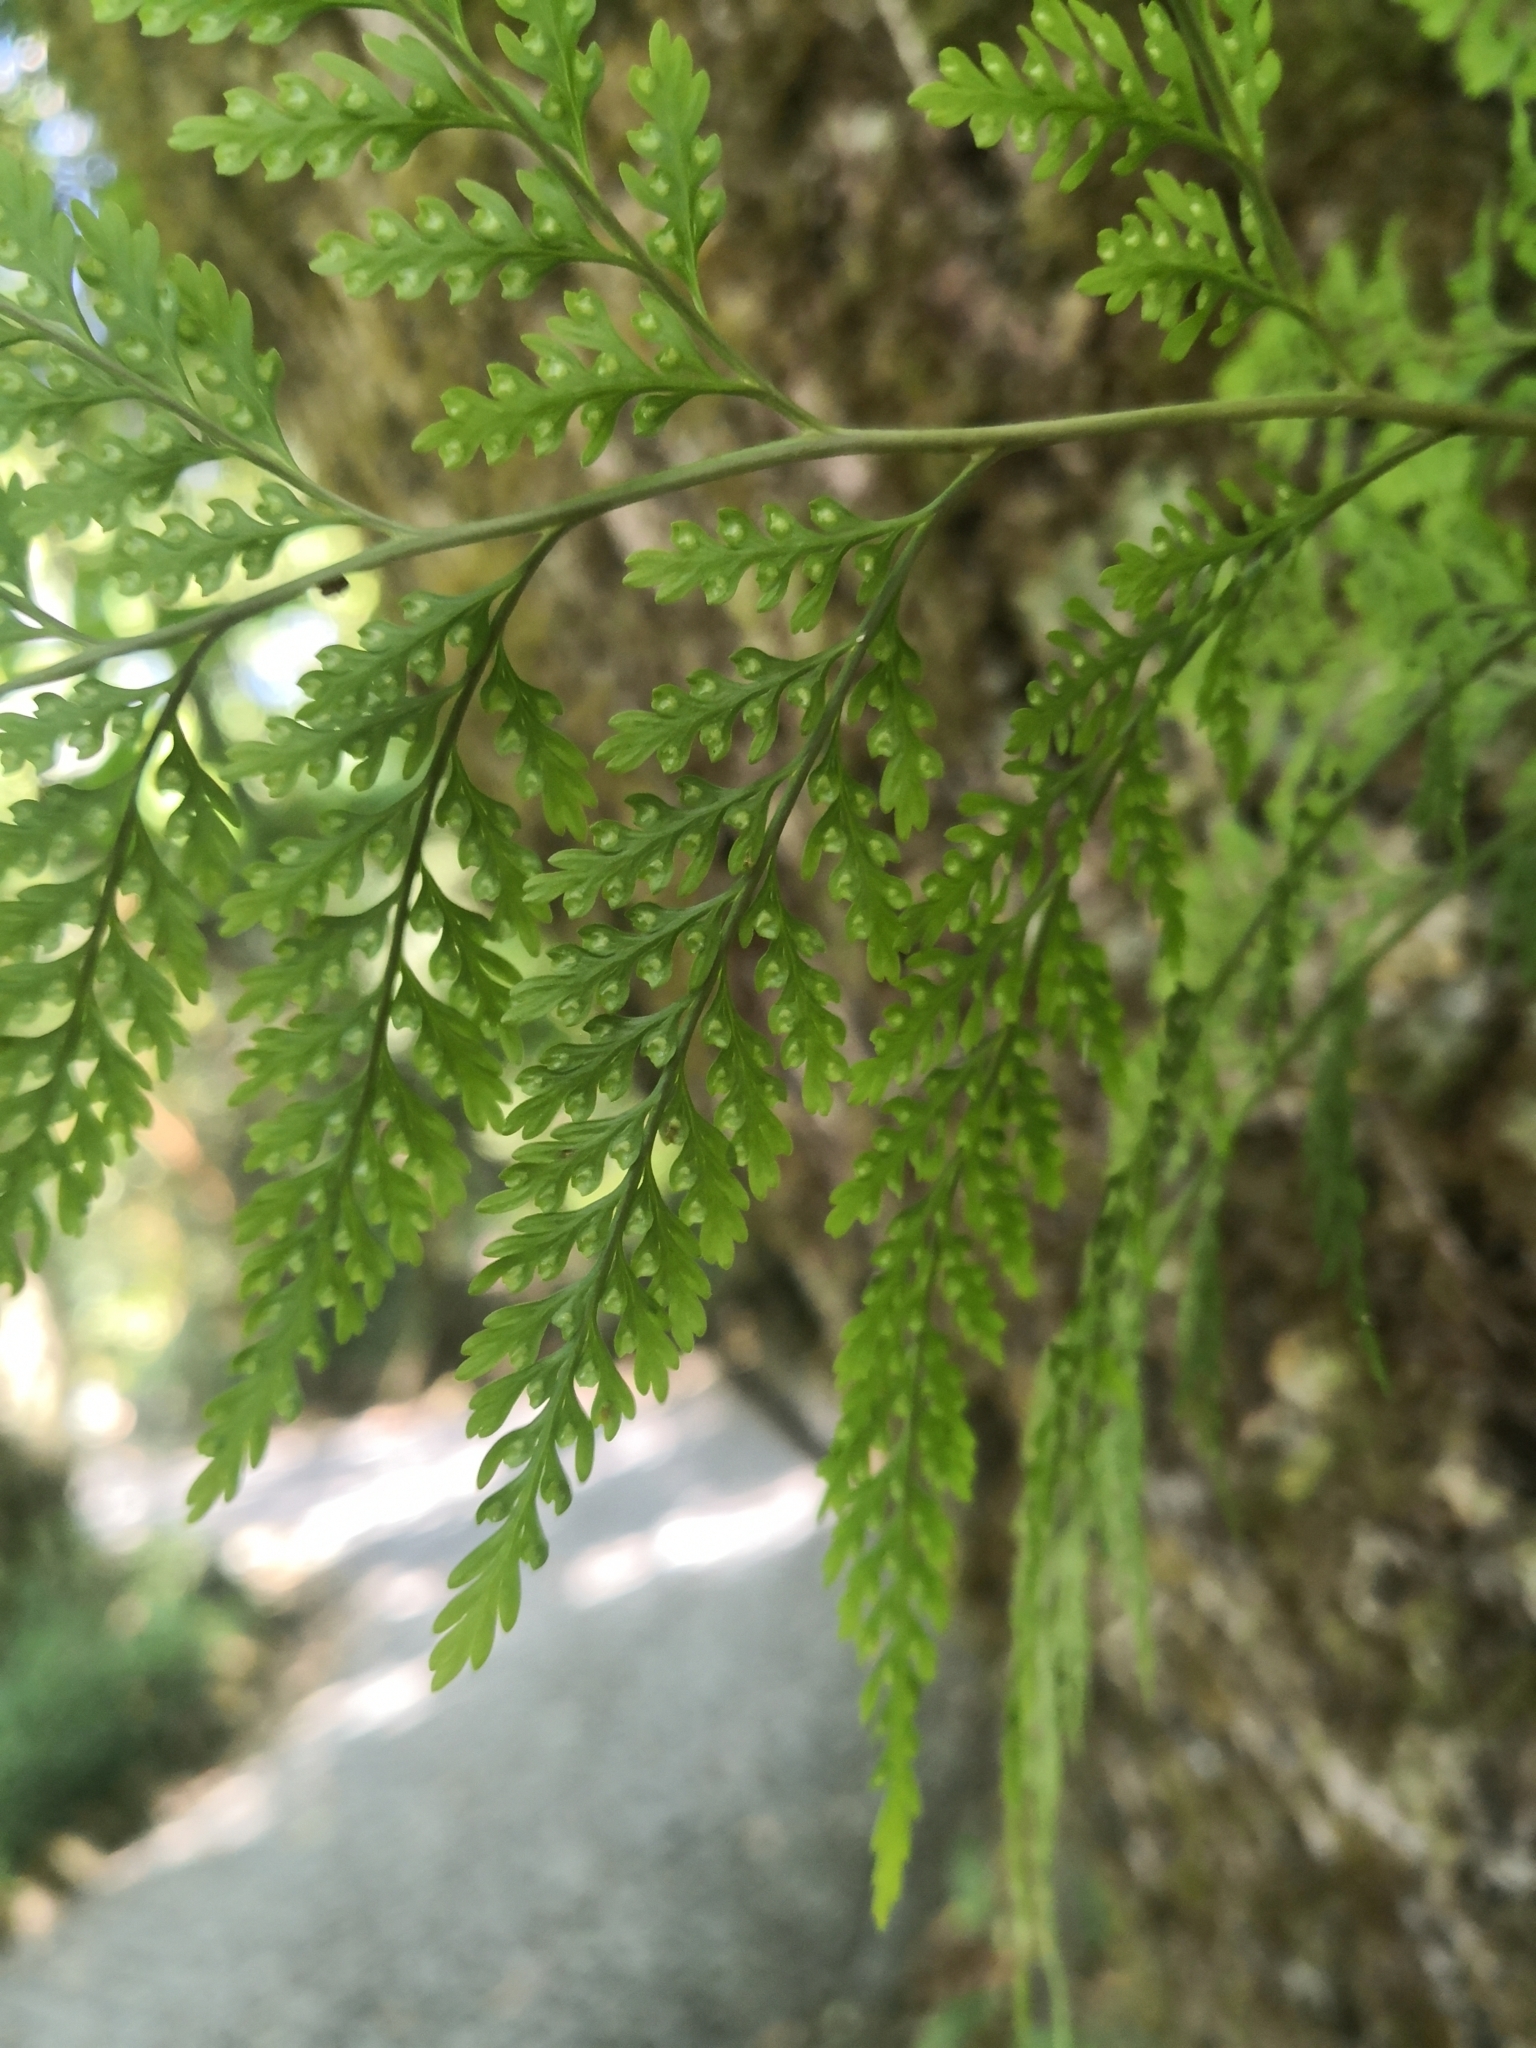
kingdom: Plantae
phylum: Tracheophyta
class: Polypodiopsida
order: Polypodiales
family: Davalliaceae
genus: Davallia
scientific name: Davallia canariensis
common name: Hare's-foot fern
